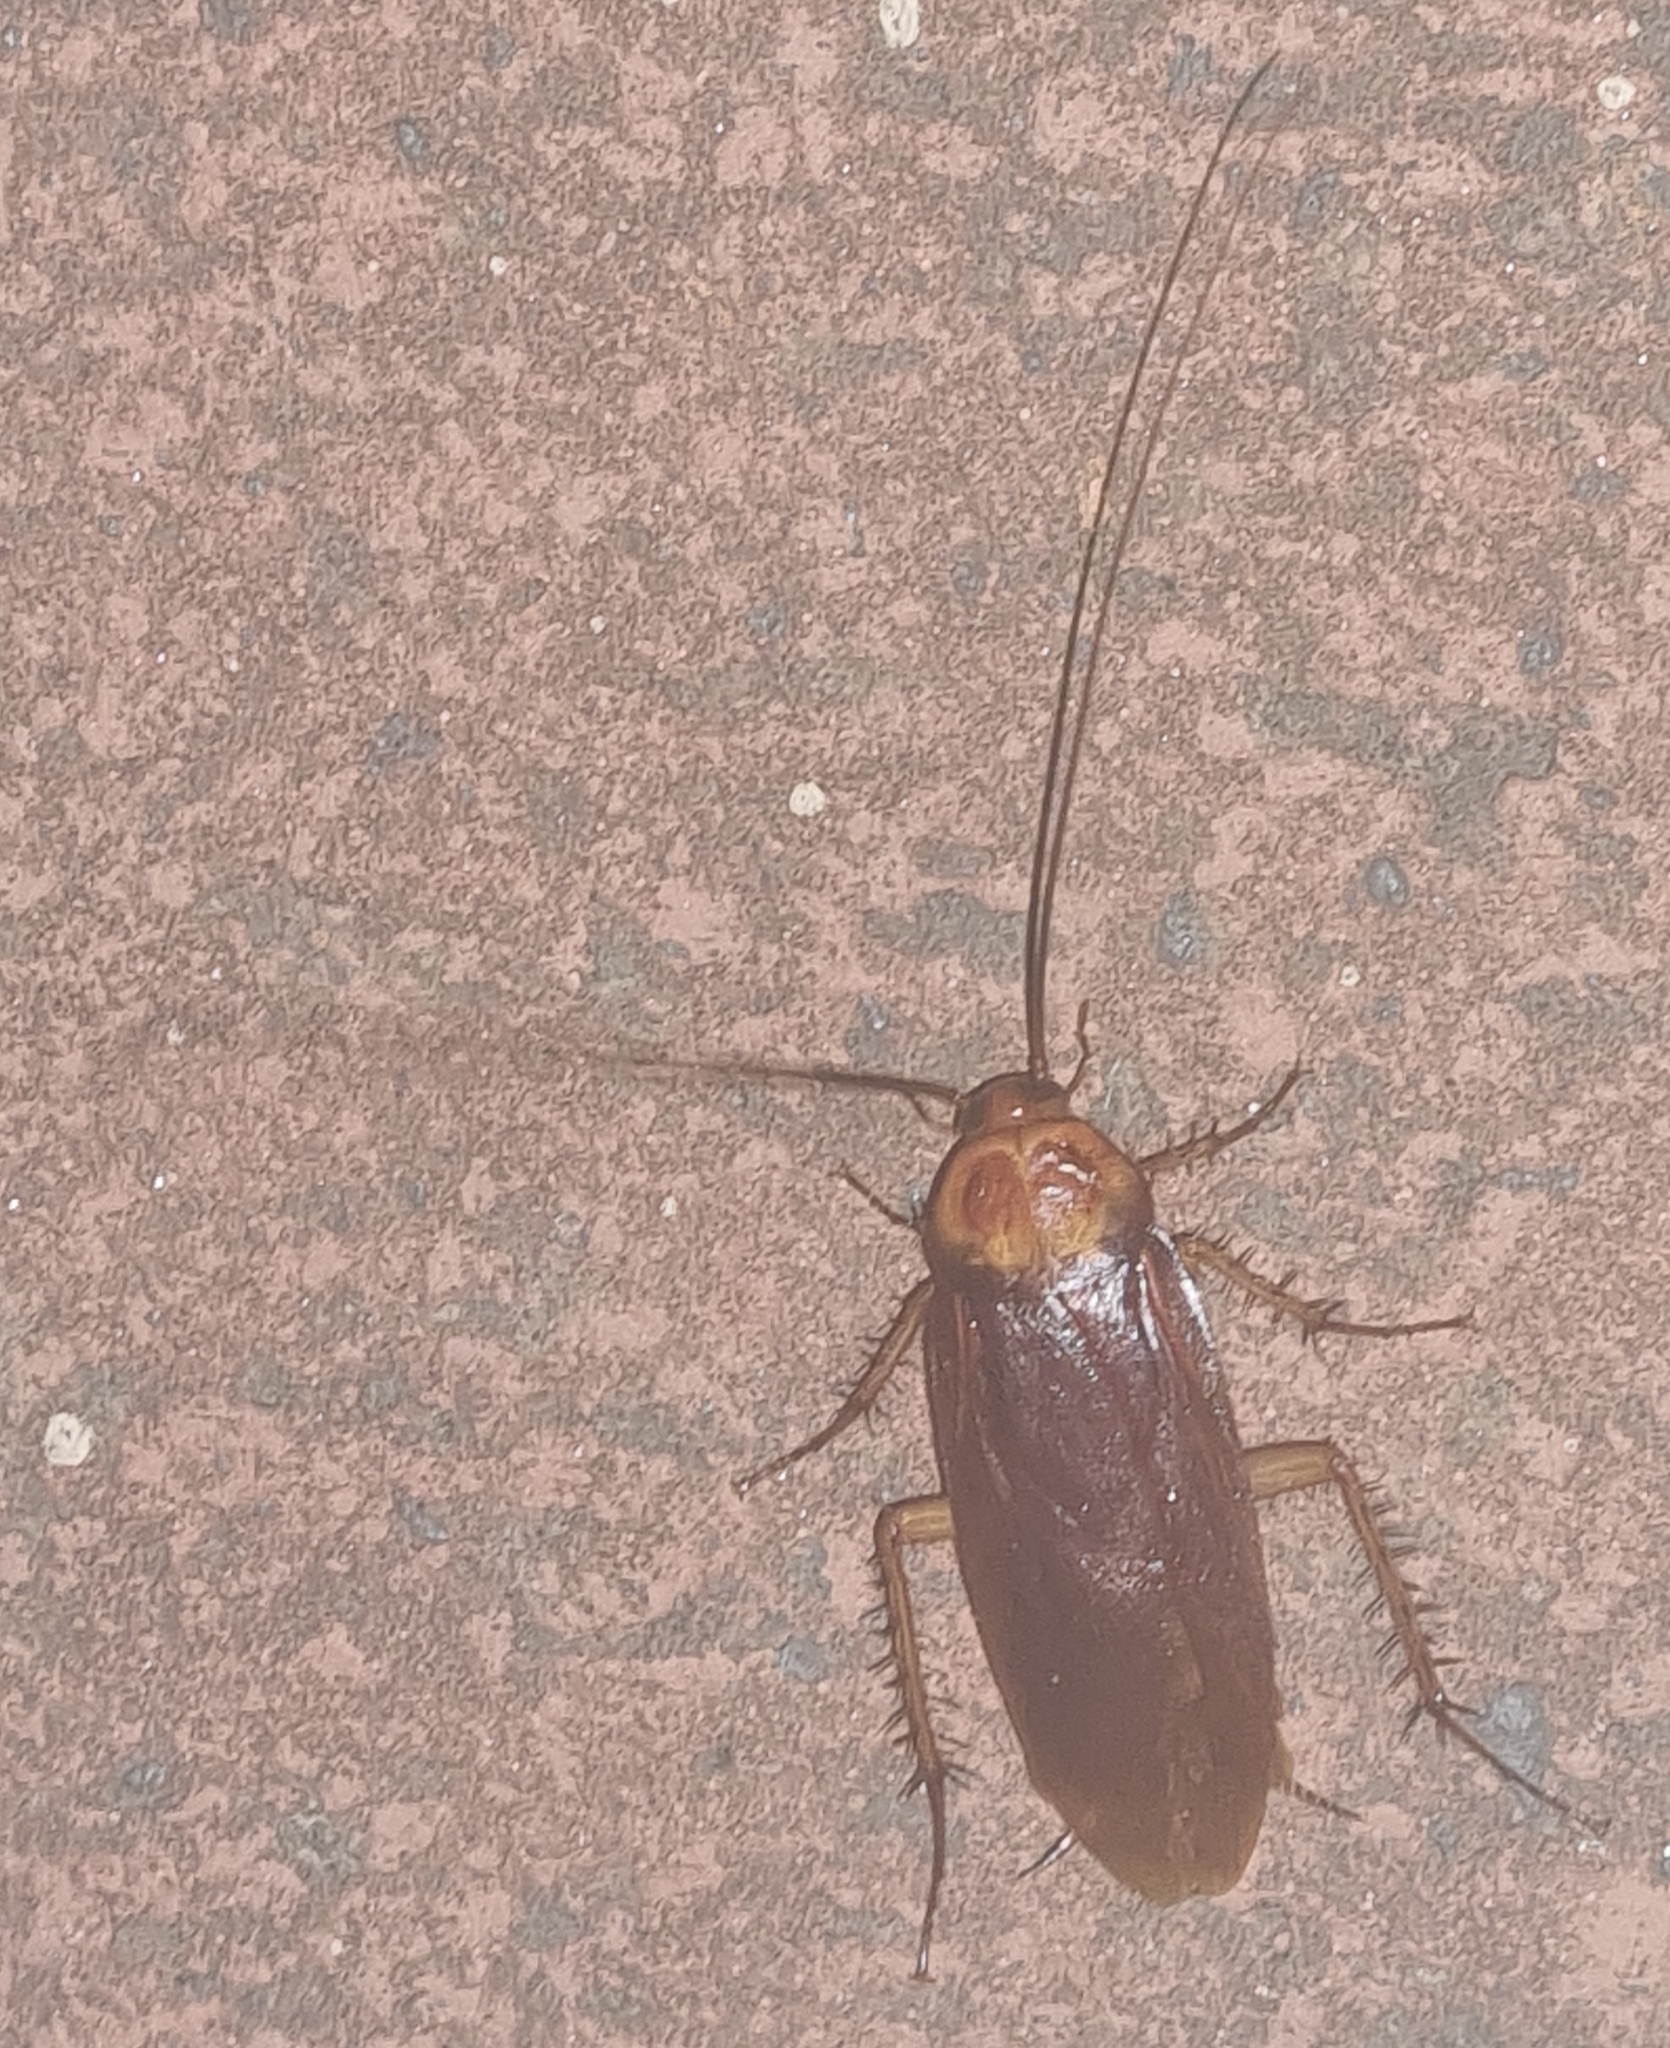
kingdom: Animalia
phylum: Arthropoda
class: Insecta
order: Blattodea
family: Blattidae
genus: Periplaneta
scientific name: Periplaneta americana
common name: American cockroach
